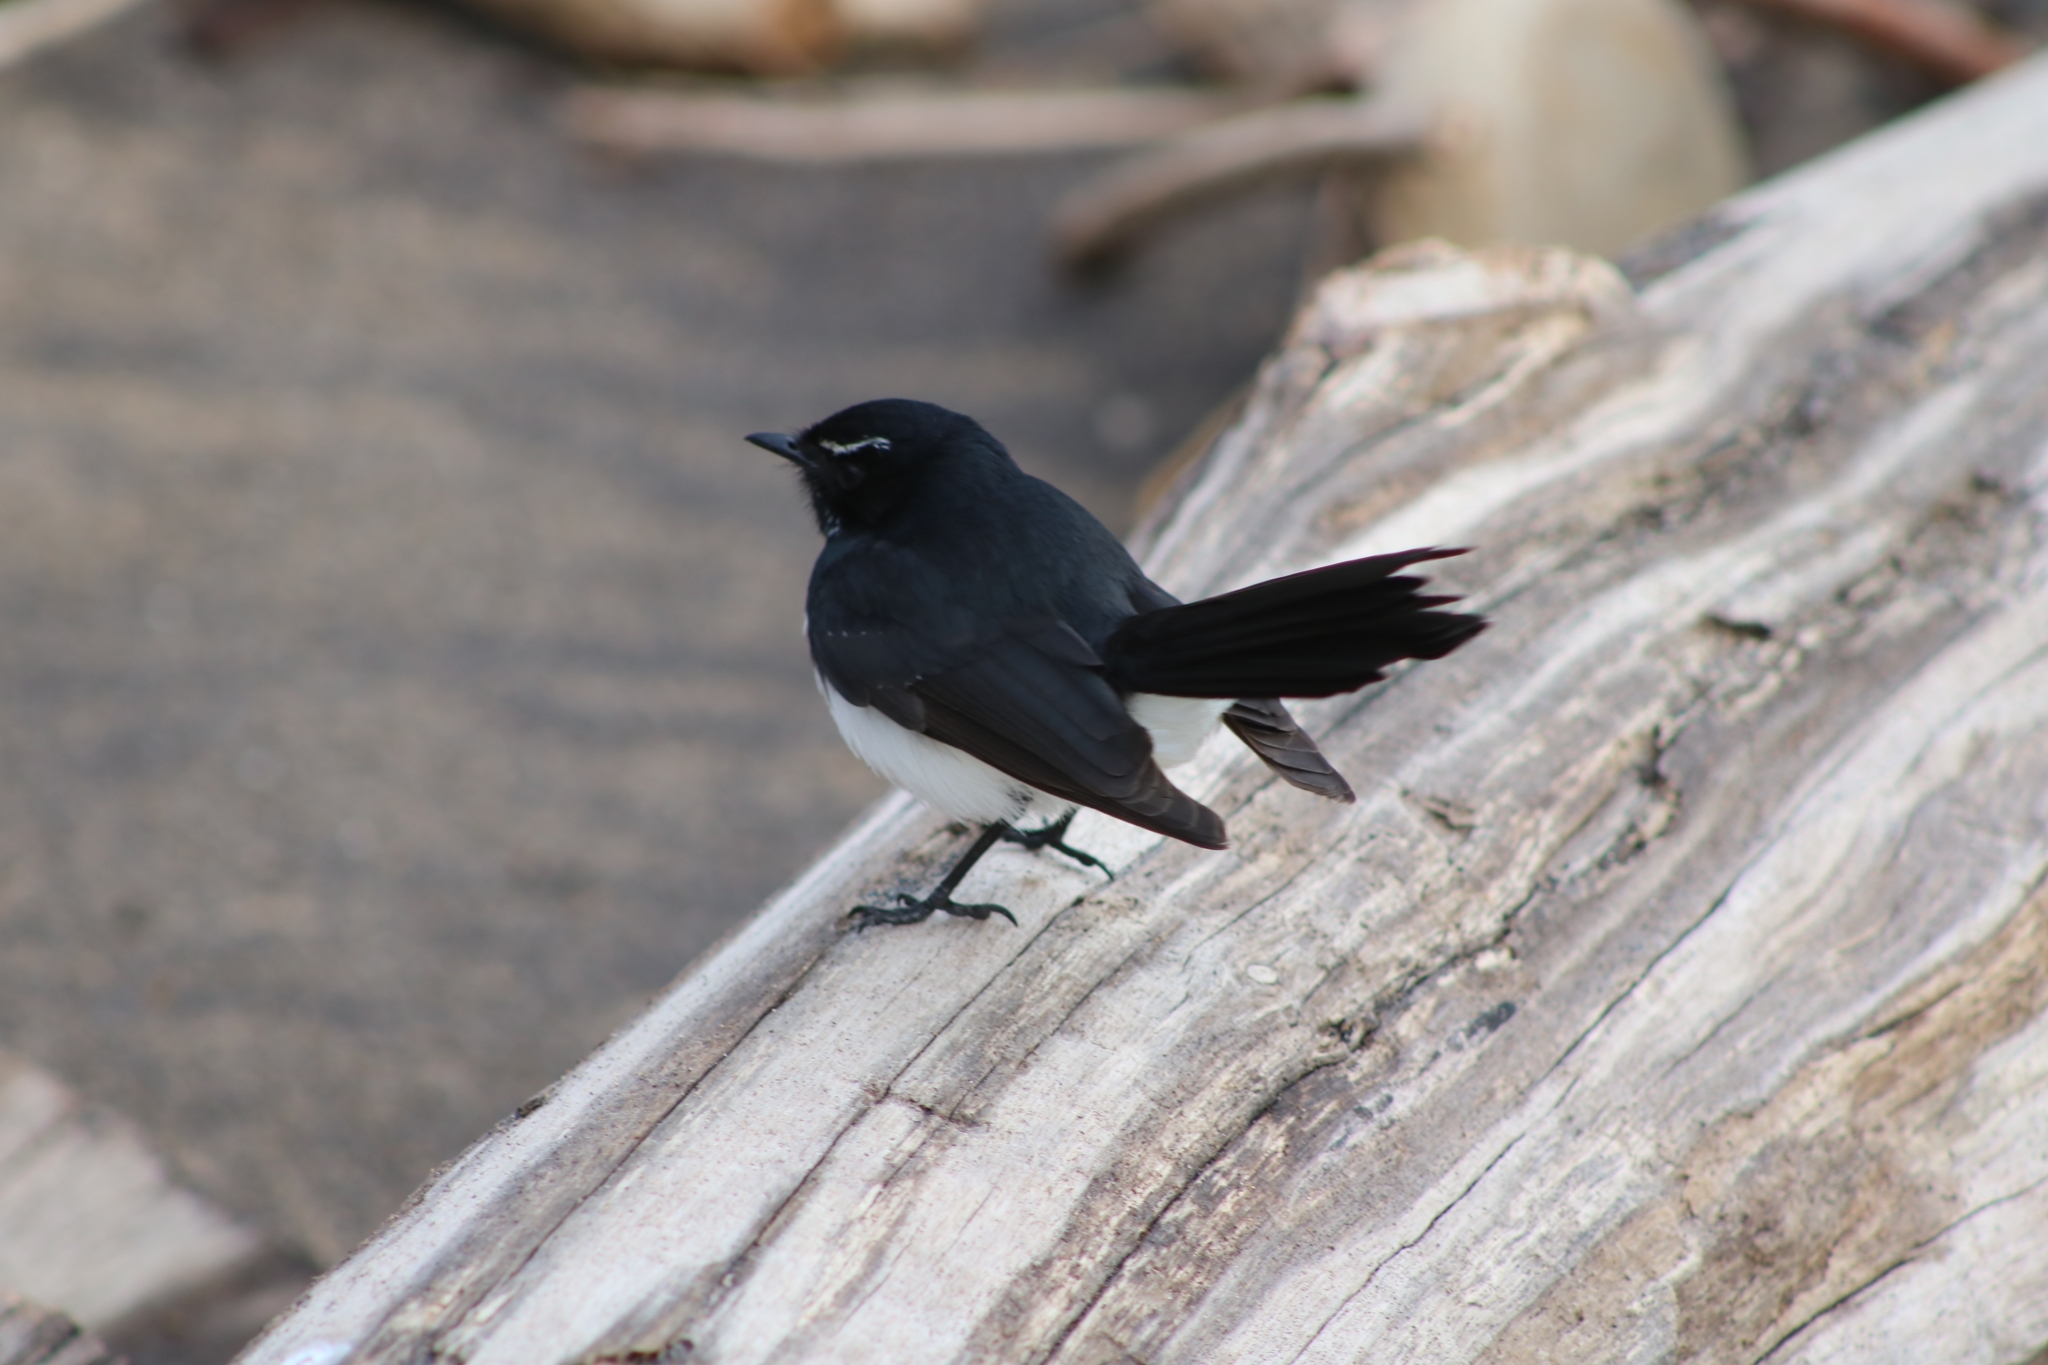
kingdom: Animalia
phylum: Chordata
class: Aves
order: Passeriformes
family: Rhipiduridae
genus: Rhipidura
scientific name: Rhipidura leucophrys
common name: Willie wagtail
